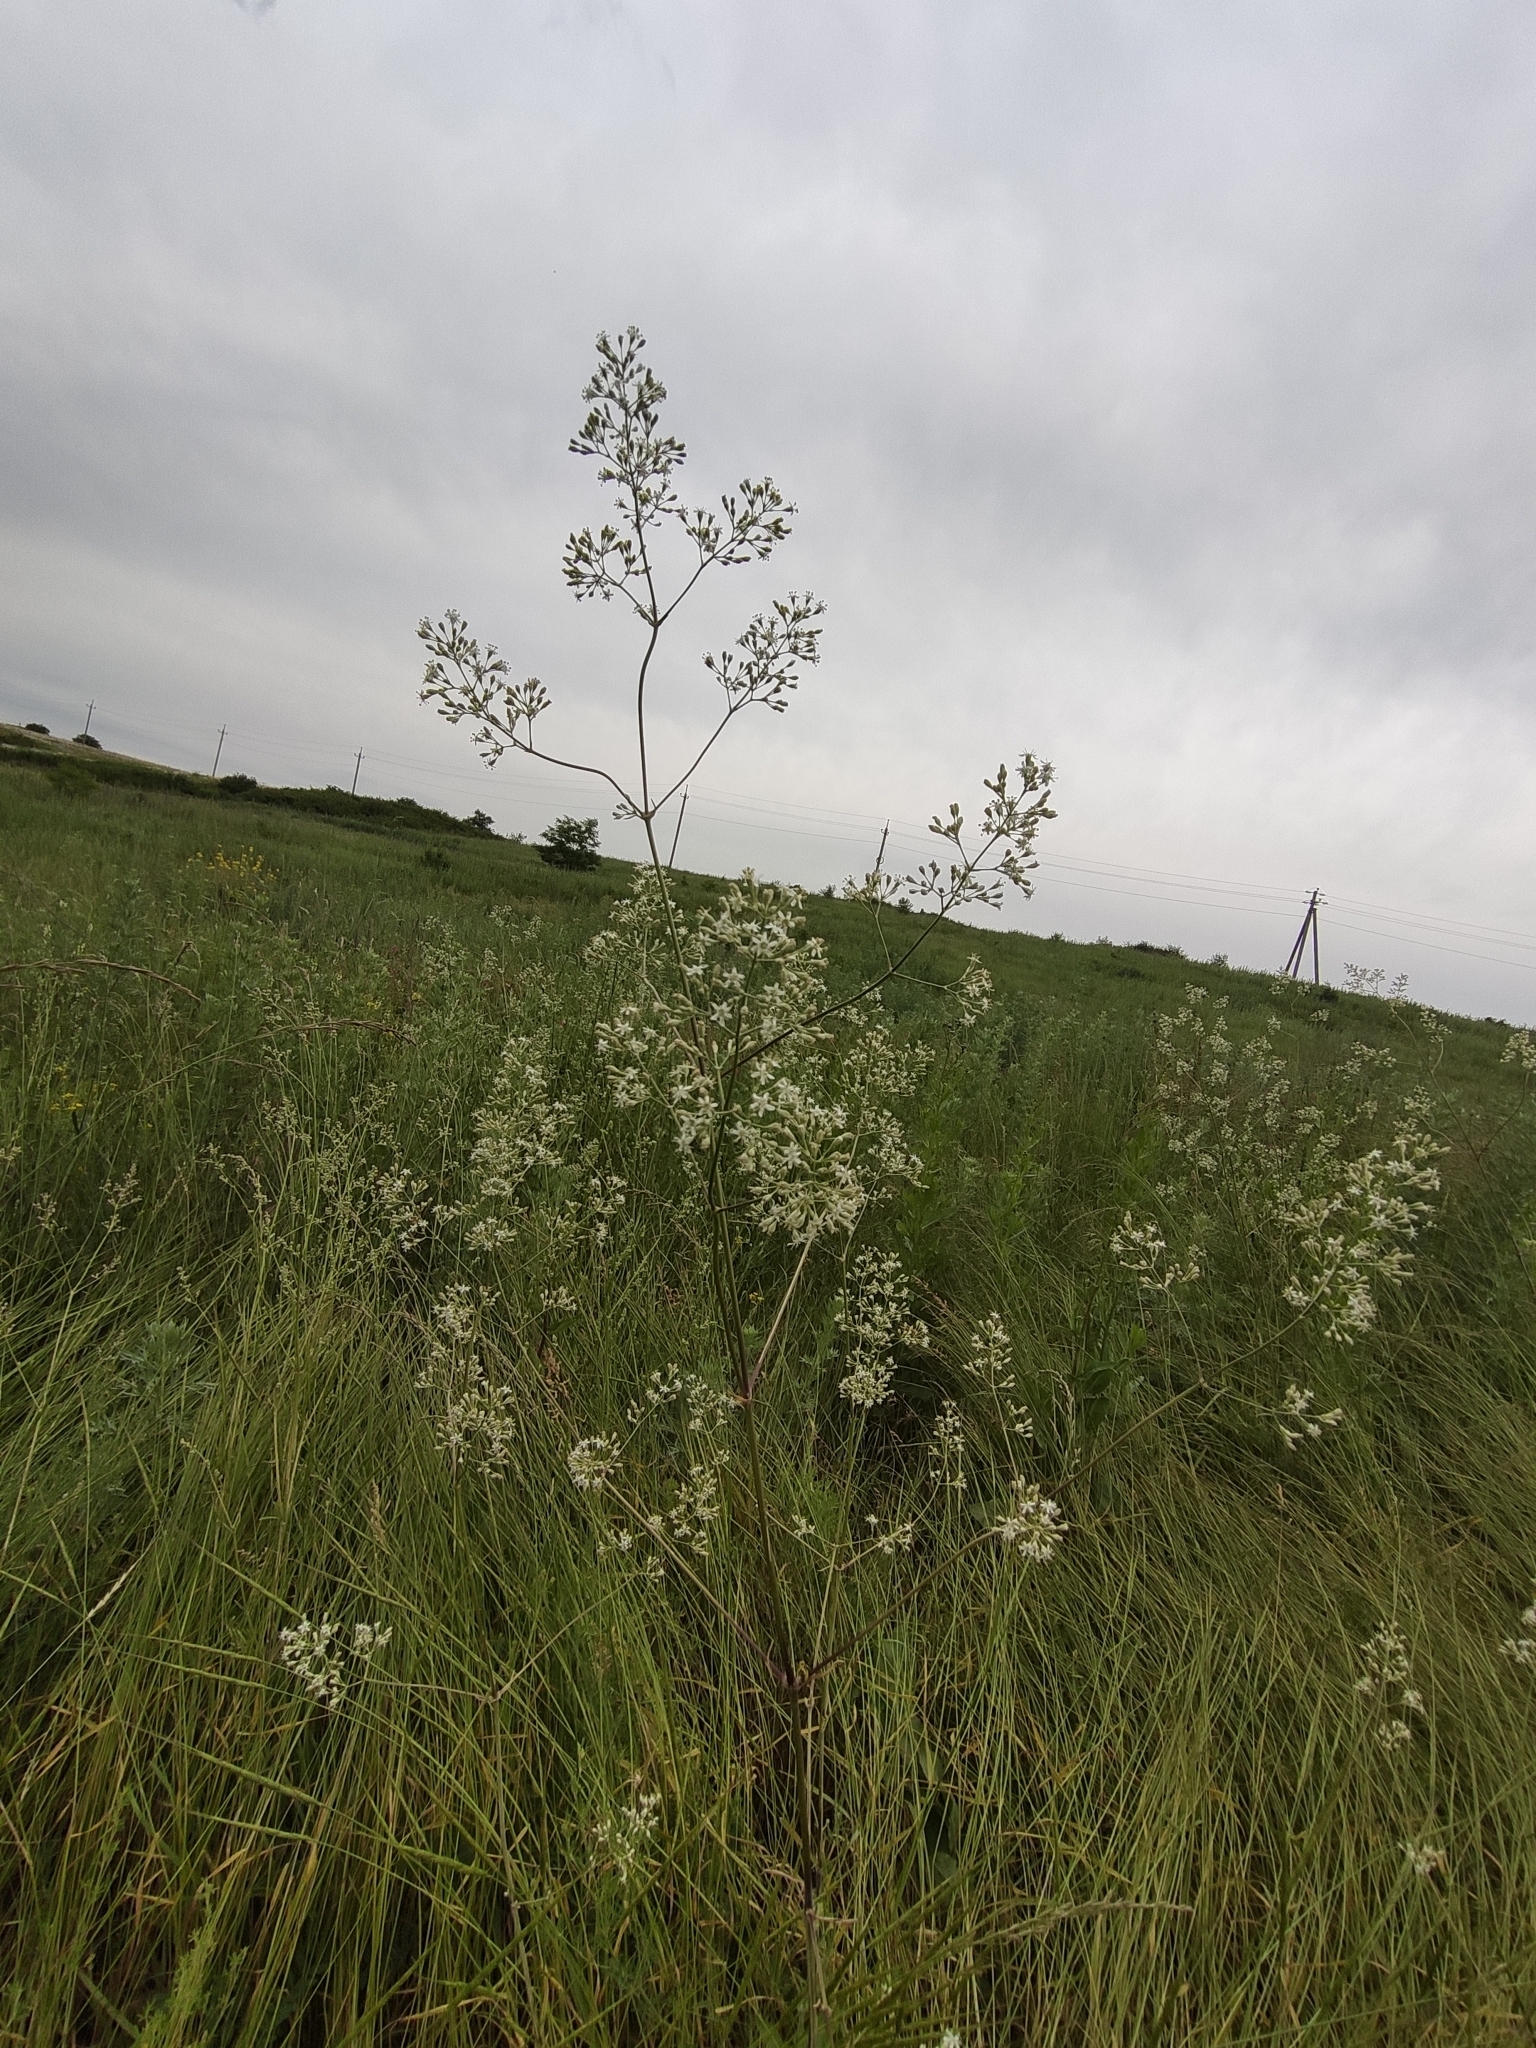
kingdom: Plantae
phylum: Tracheophyta
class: Magnoliopsida
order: Caryophyllales
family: Caryophyllaceae
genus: Silene
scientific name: Silene wolgensis
